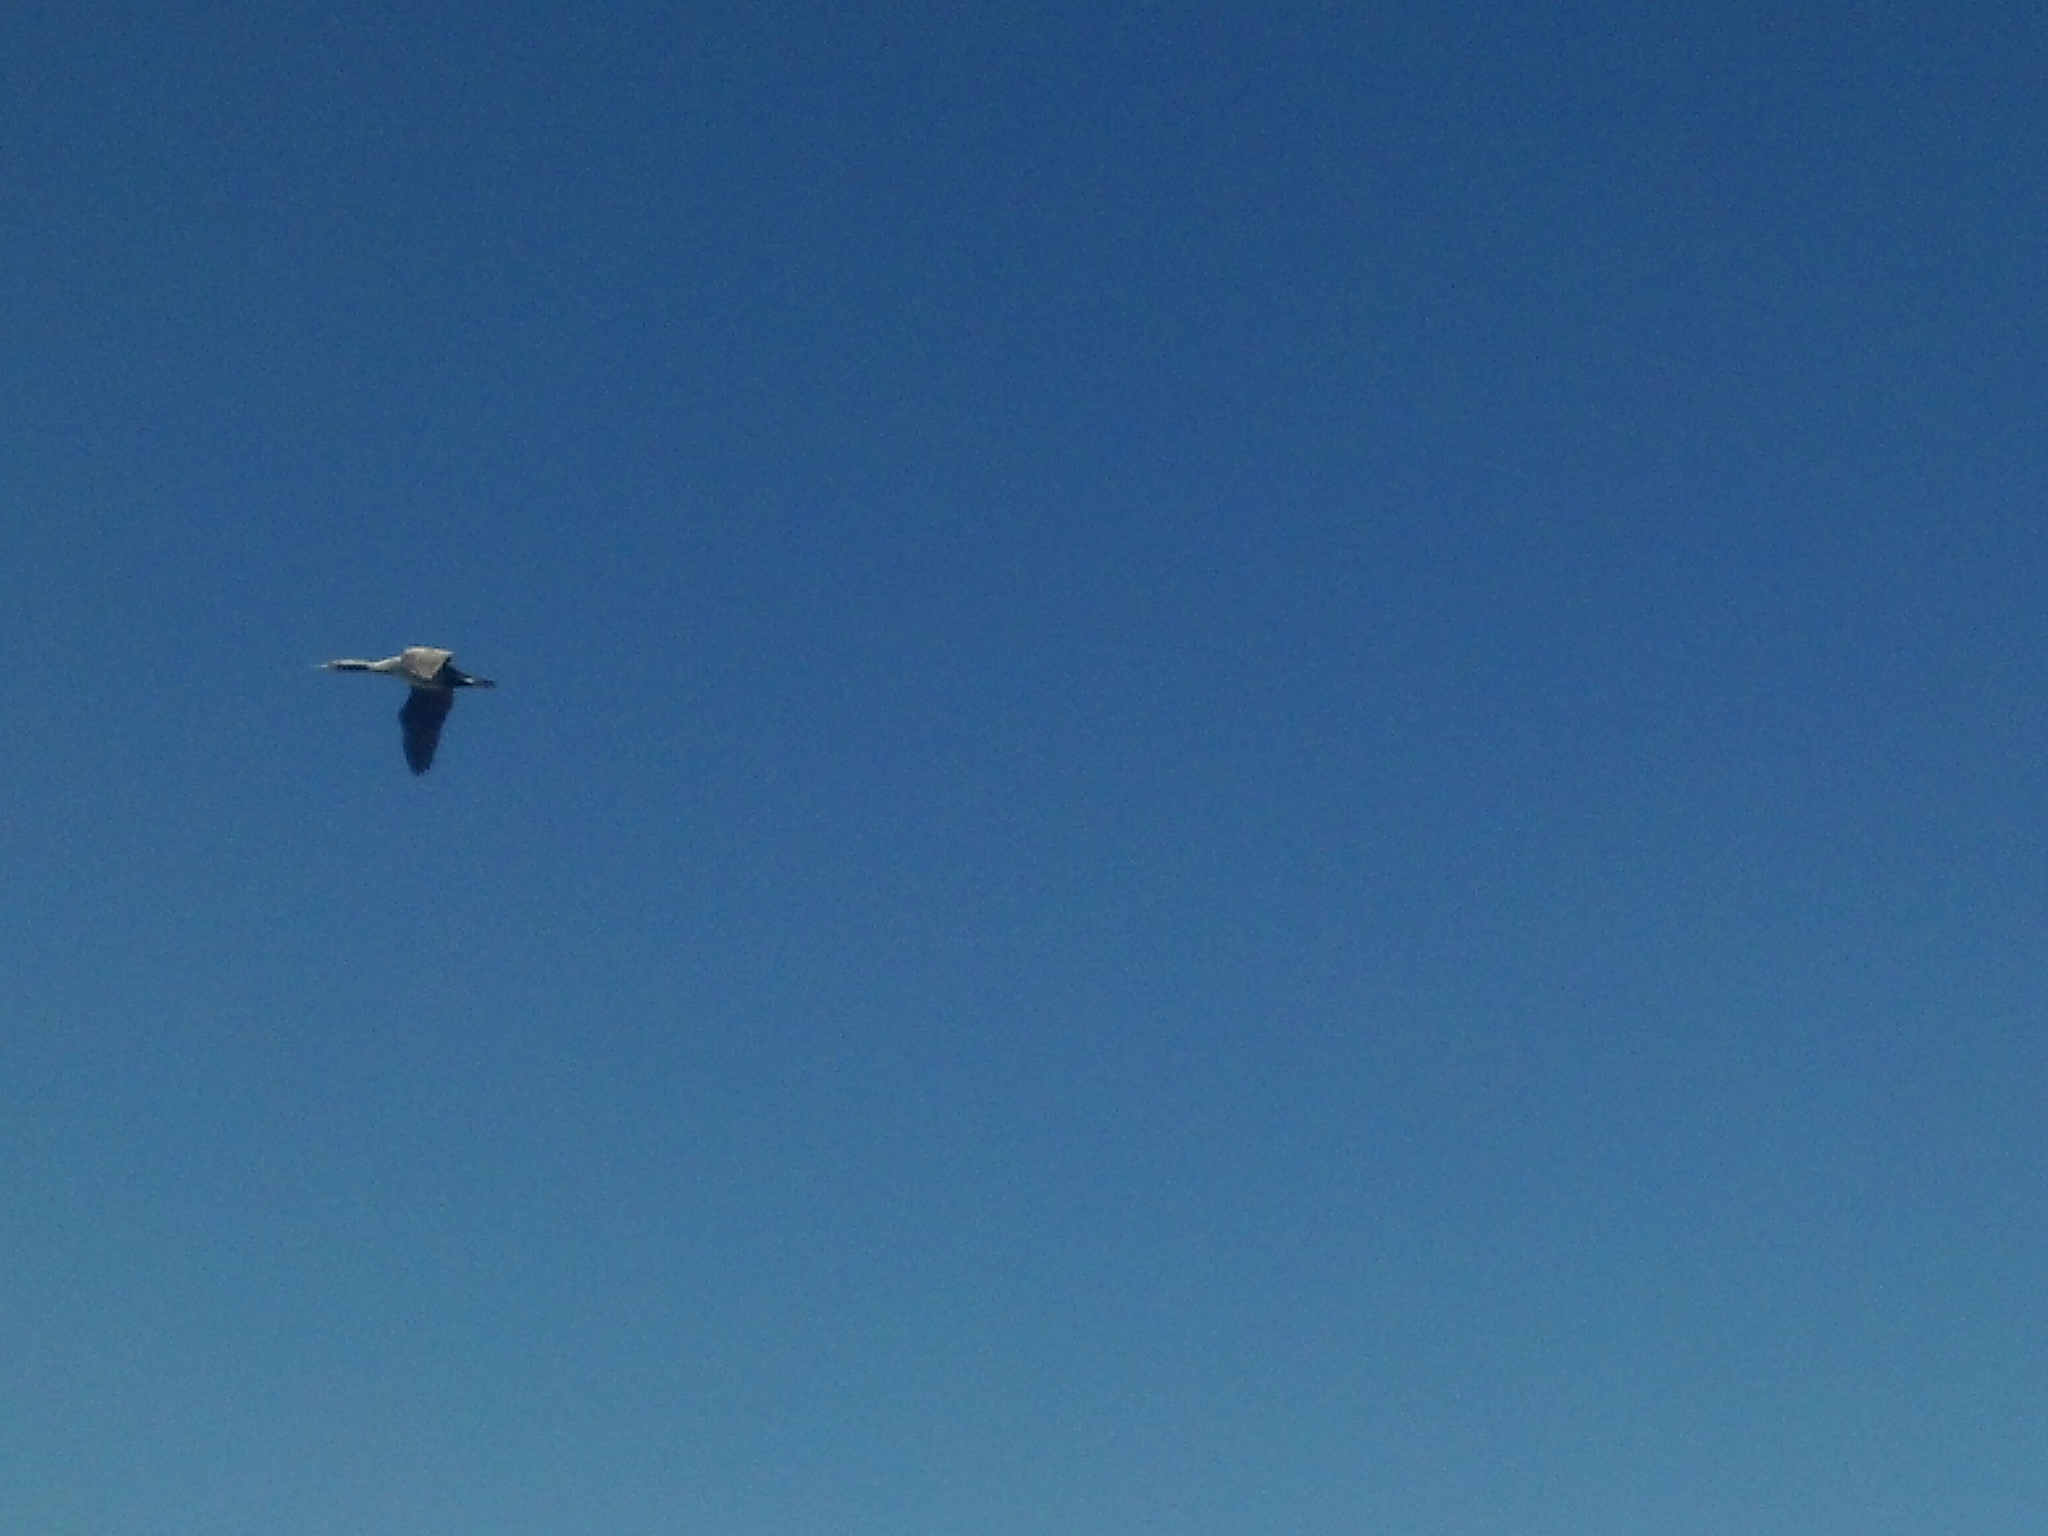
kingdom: Animalia
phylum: Chordata
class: Aves
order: Suliformes
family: Phalacrocoracidae
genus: Phalacrocorax
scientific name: Phalacrocorax punctatus
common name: Spotted shag
